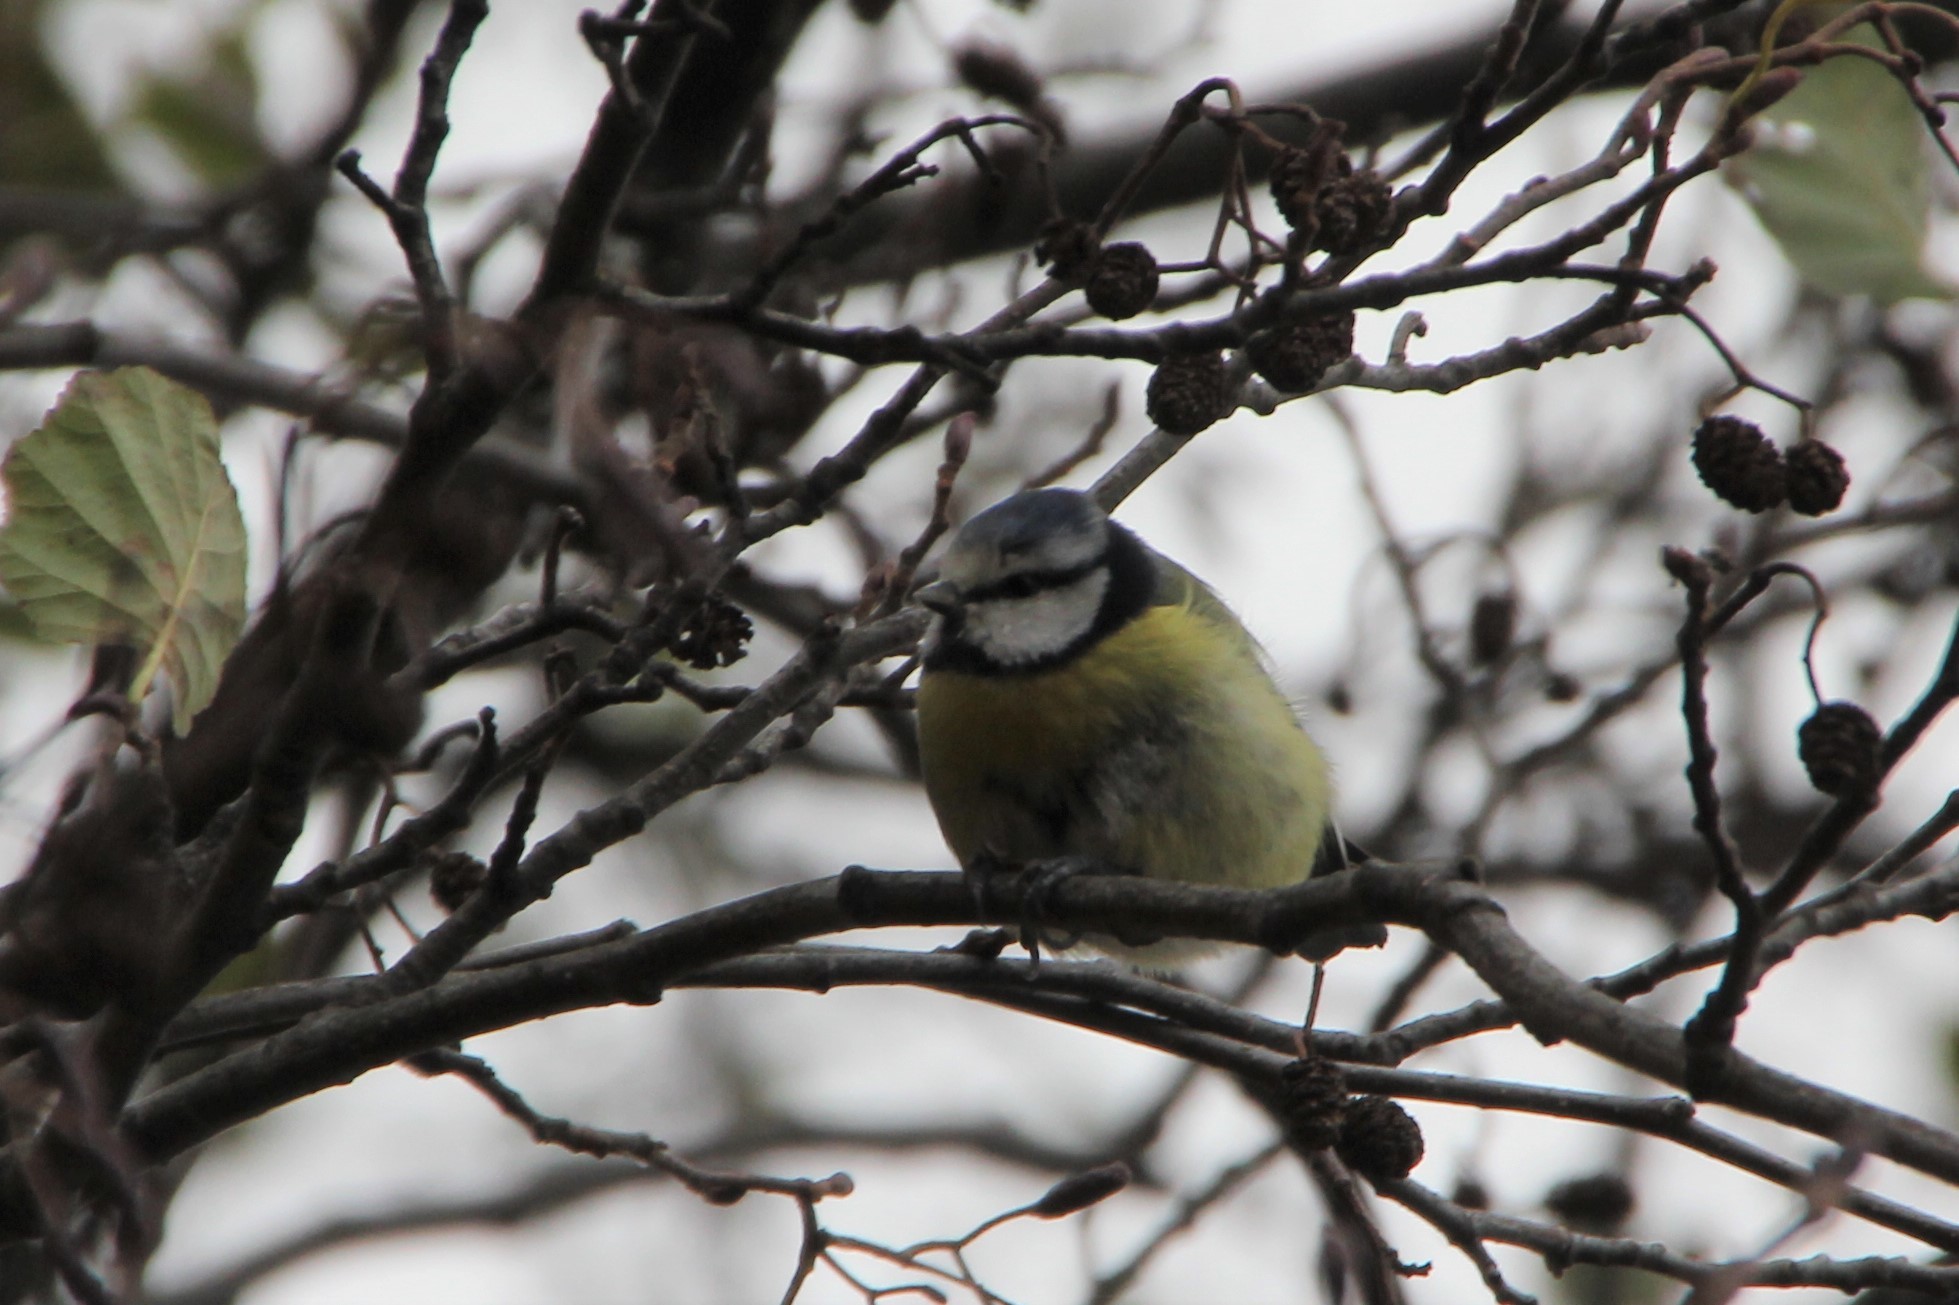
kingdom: Animalia
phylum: Chordata
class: Aves
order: Passeriformes
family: Paridae
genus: Cyanistes
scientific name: Cyanistes caeruleus
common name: Eurasian blue tit
